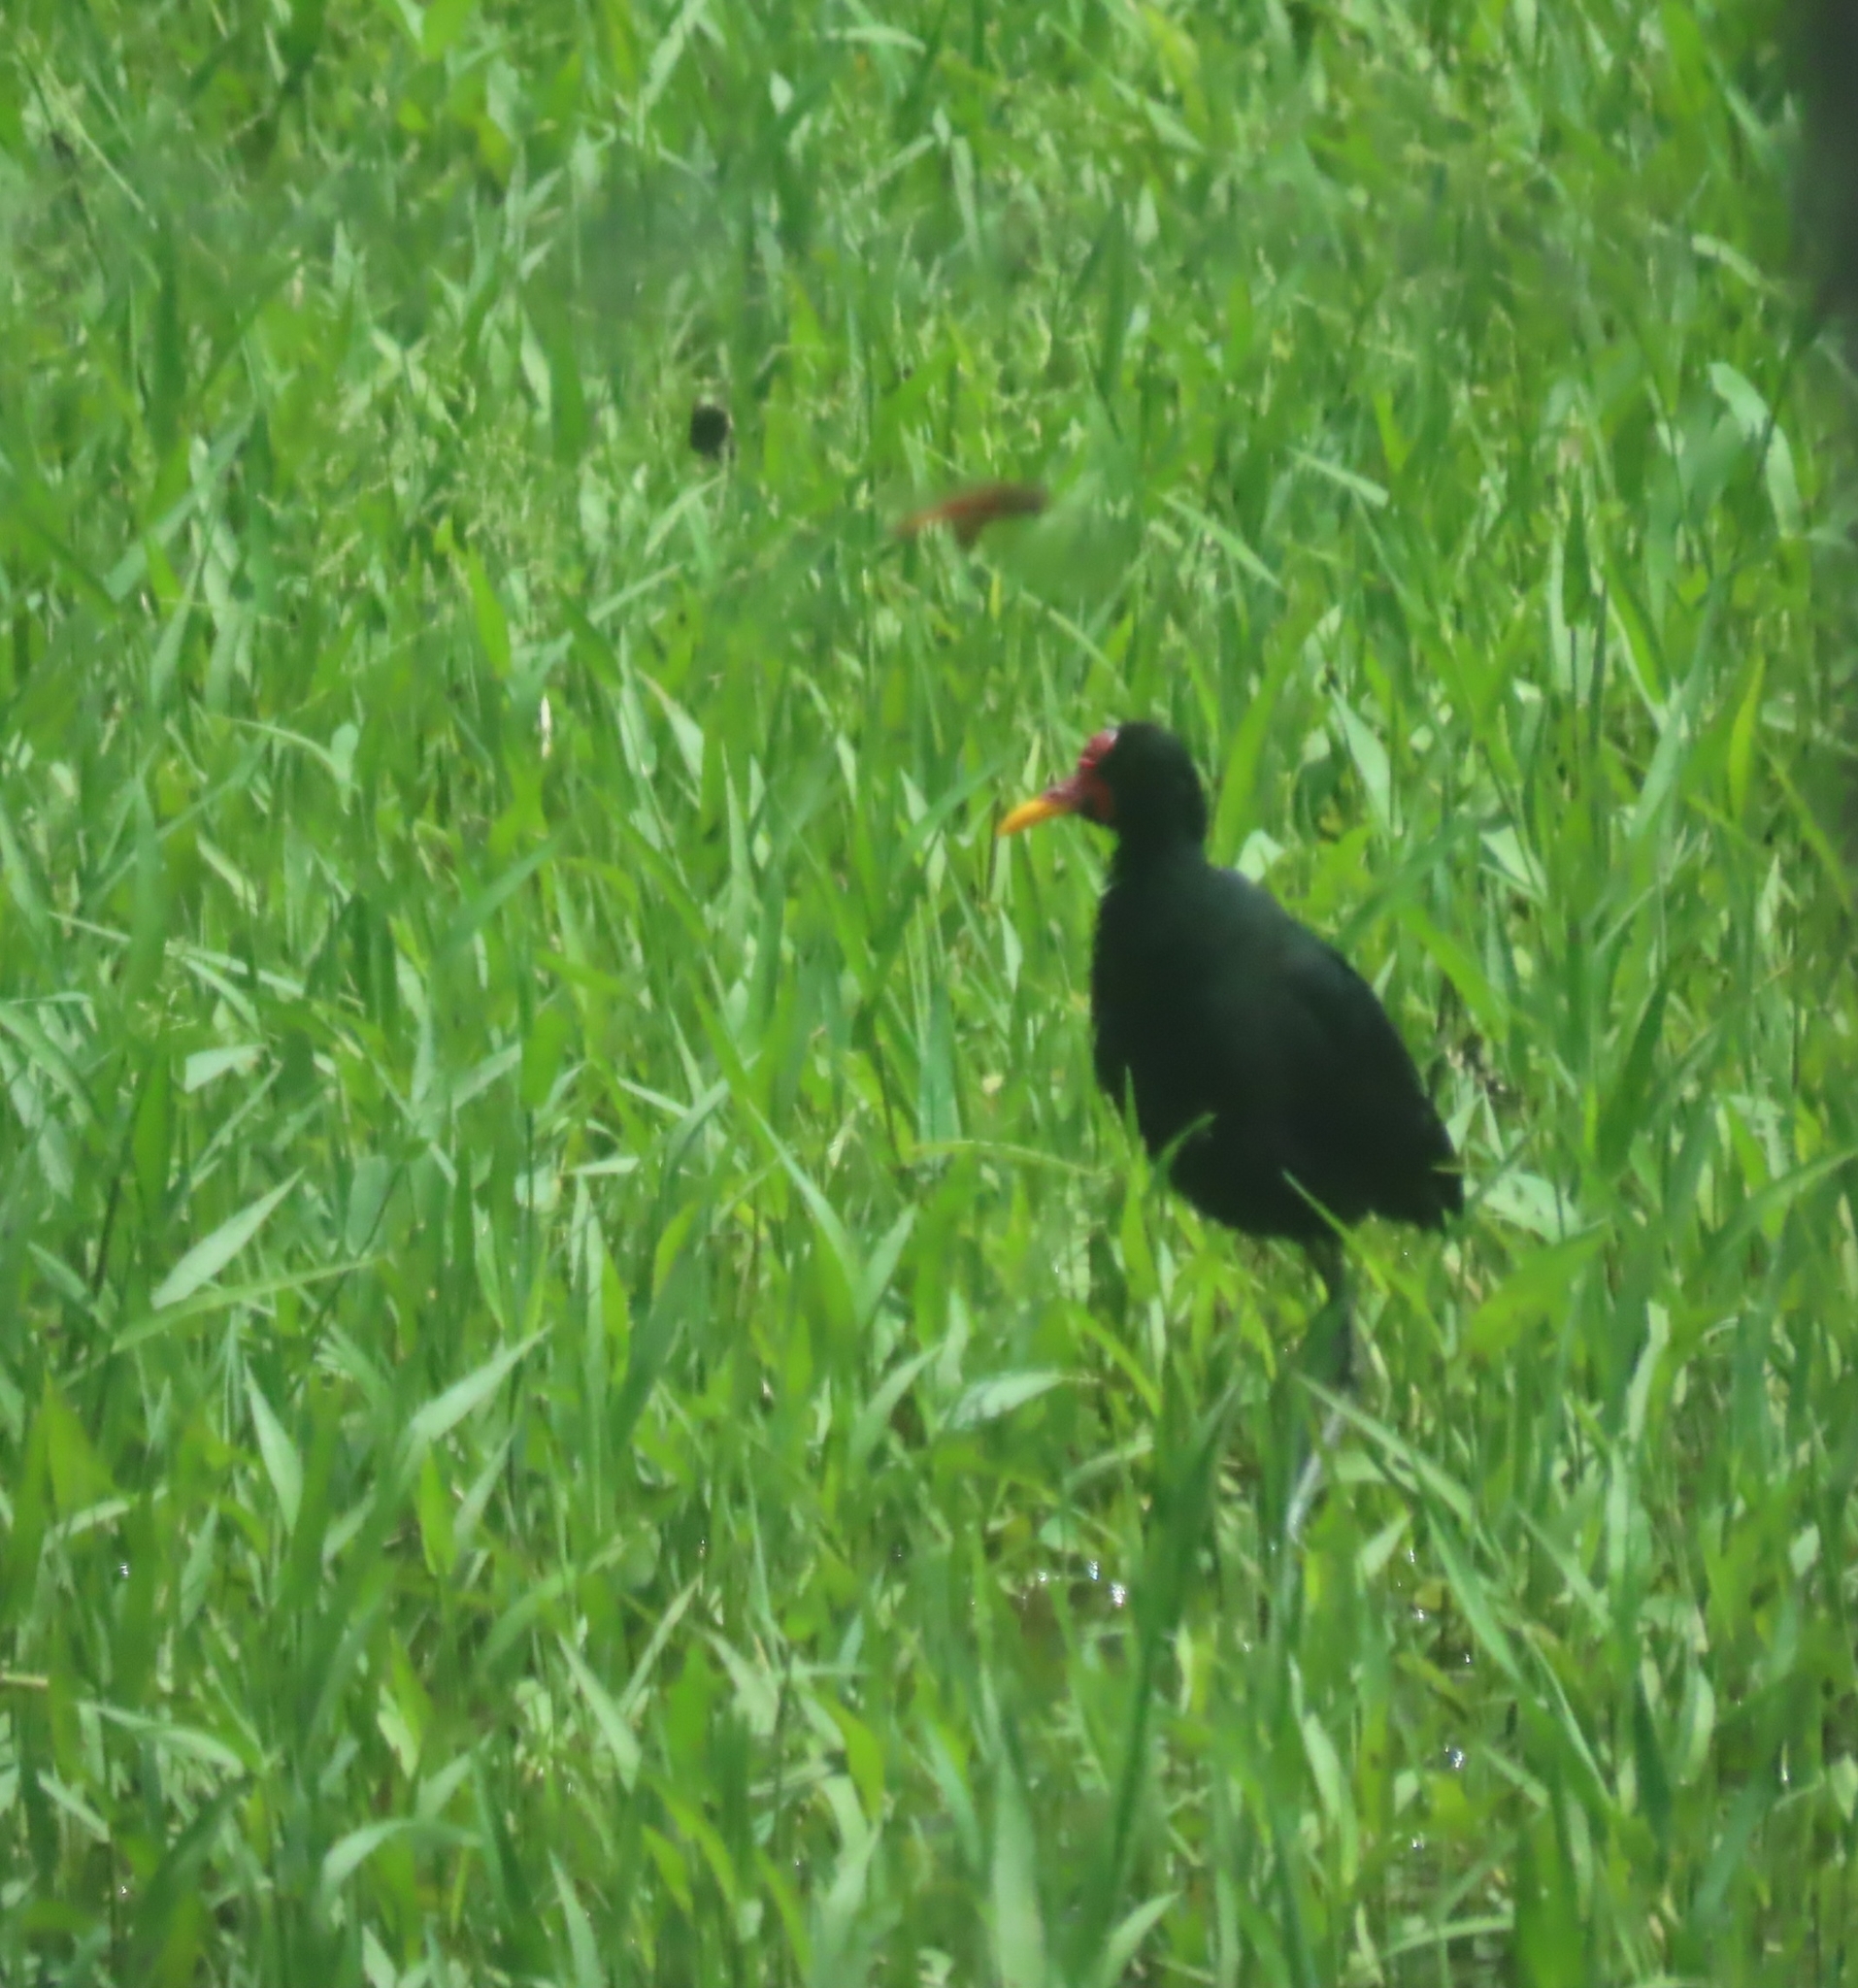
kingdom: Animalia
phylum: Chordata
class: Aves
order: Charadriiformes
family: Jacanidae
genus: Jacana
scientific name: Jacana jacana
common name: Wattled jacana
